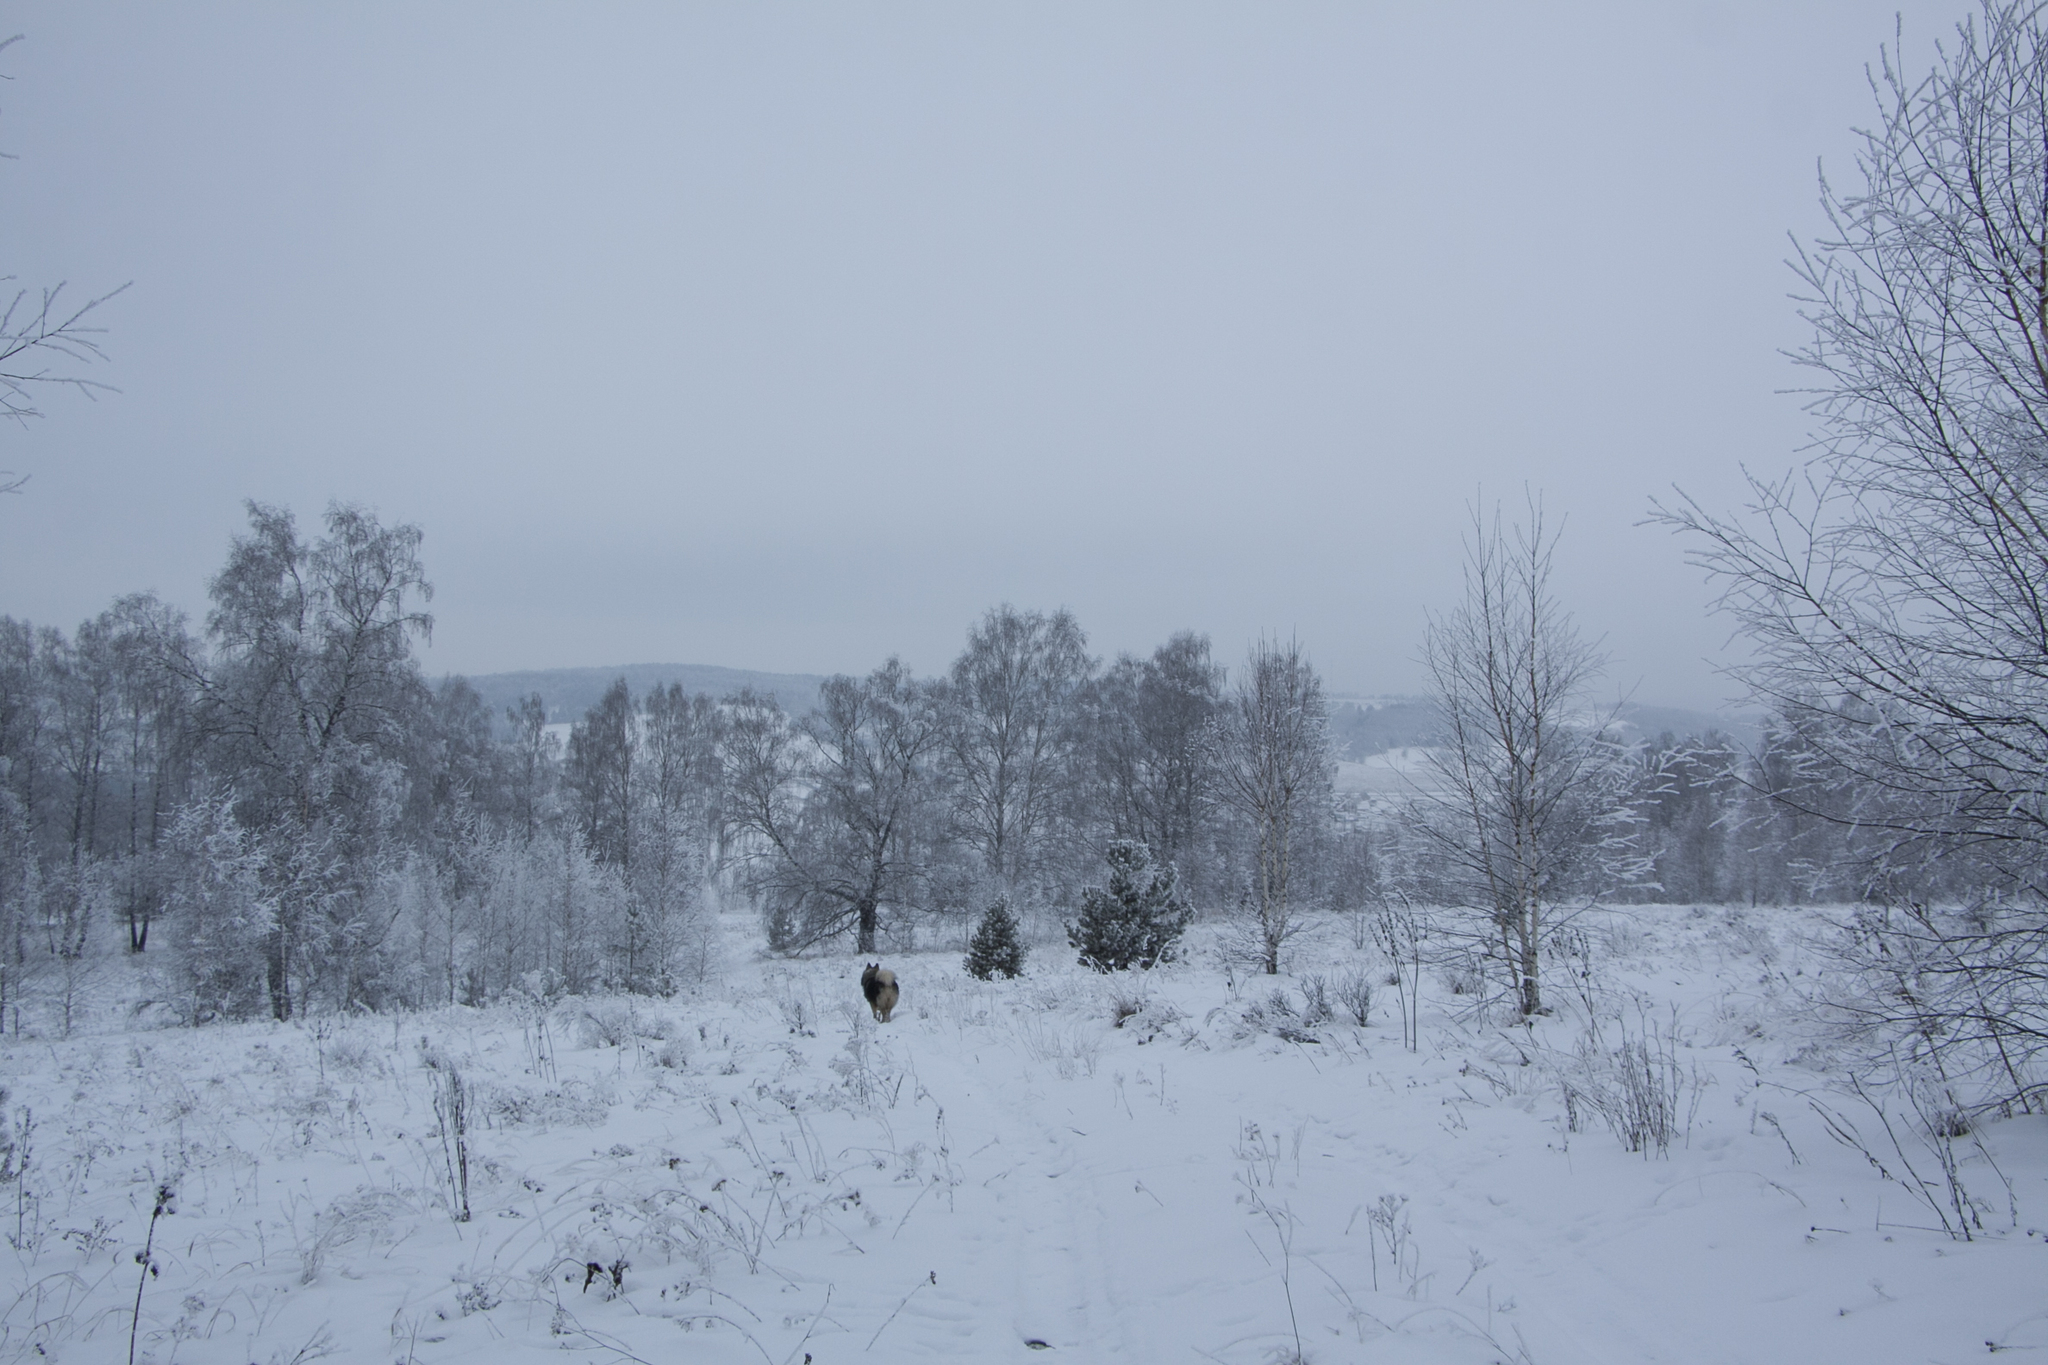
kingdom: Plantae
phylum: Tracheophyta
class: Magnoliopsida
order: Fagales
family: Betulaceae
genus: Betula
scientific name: Betula pendula
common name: Silver birch
